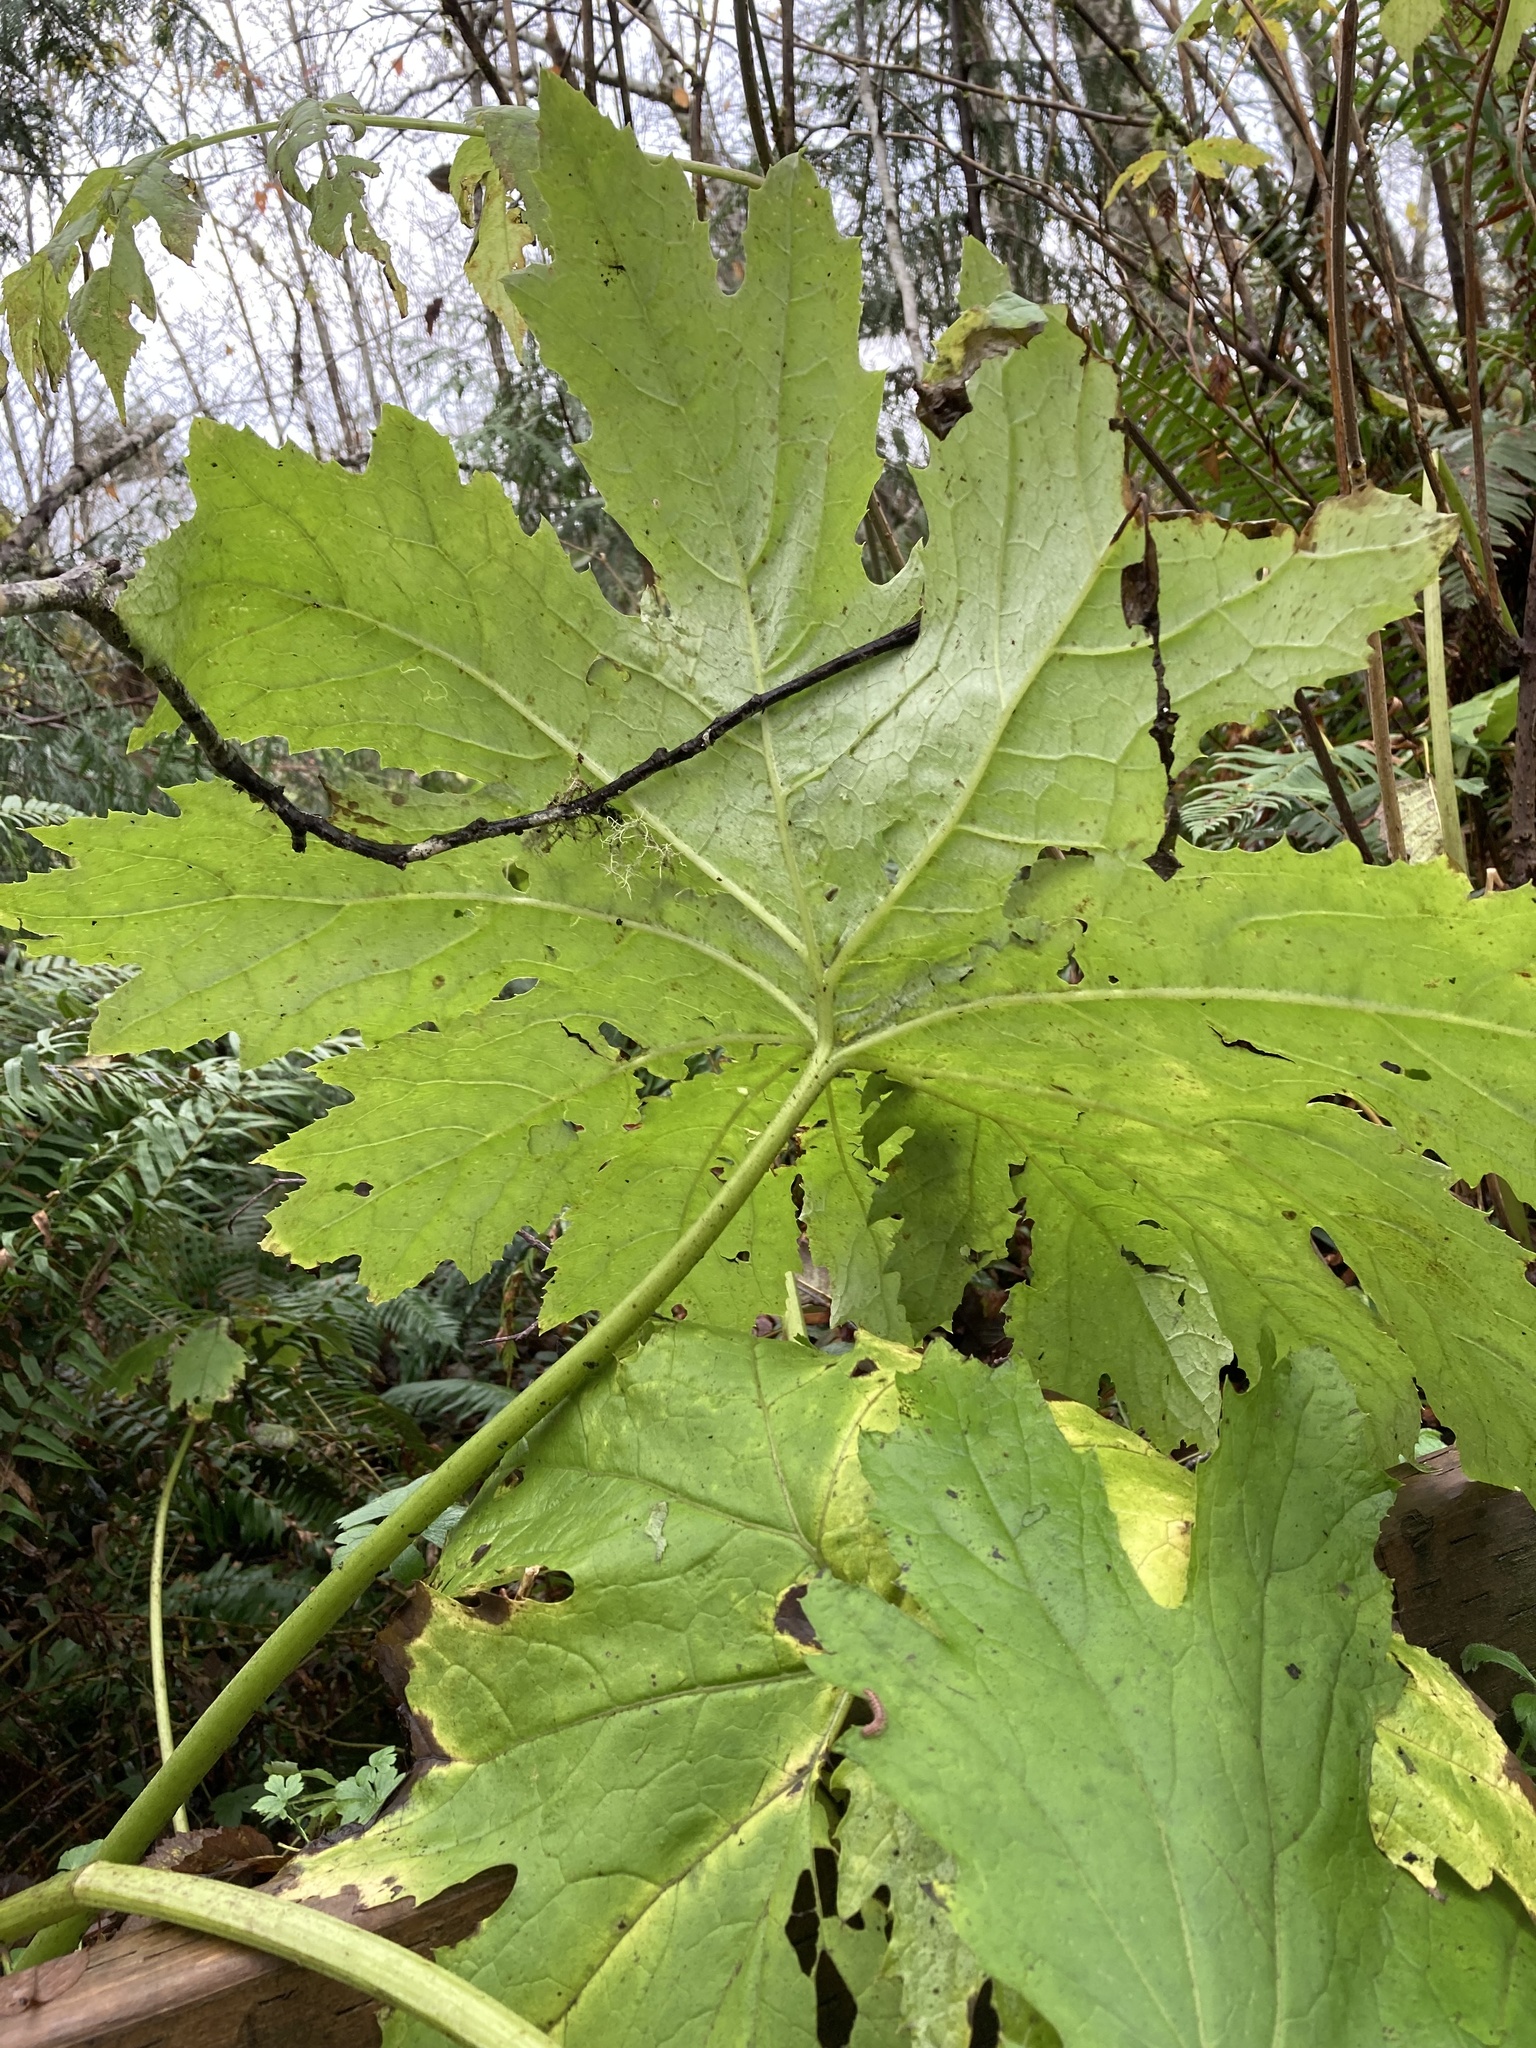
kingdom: Plantae
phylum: Tracheophyta
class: Magnoliopsida
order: Asterales
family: Asteraceae
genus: Petasites
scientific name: Petasites frigidus
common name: Arctic butterbur
